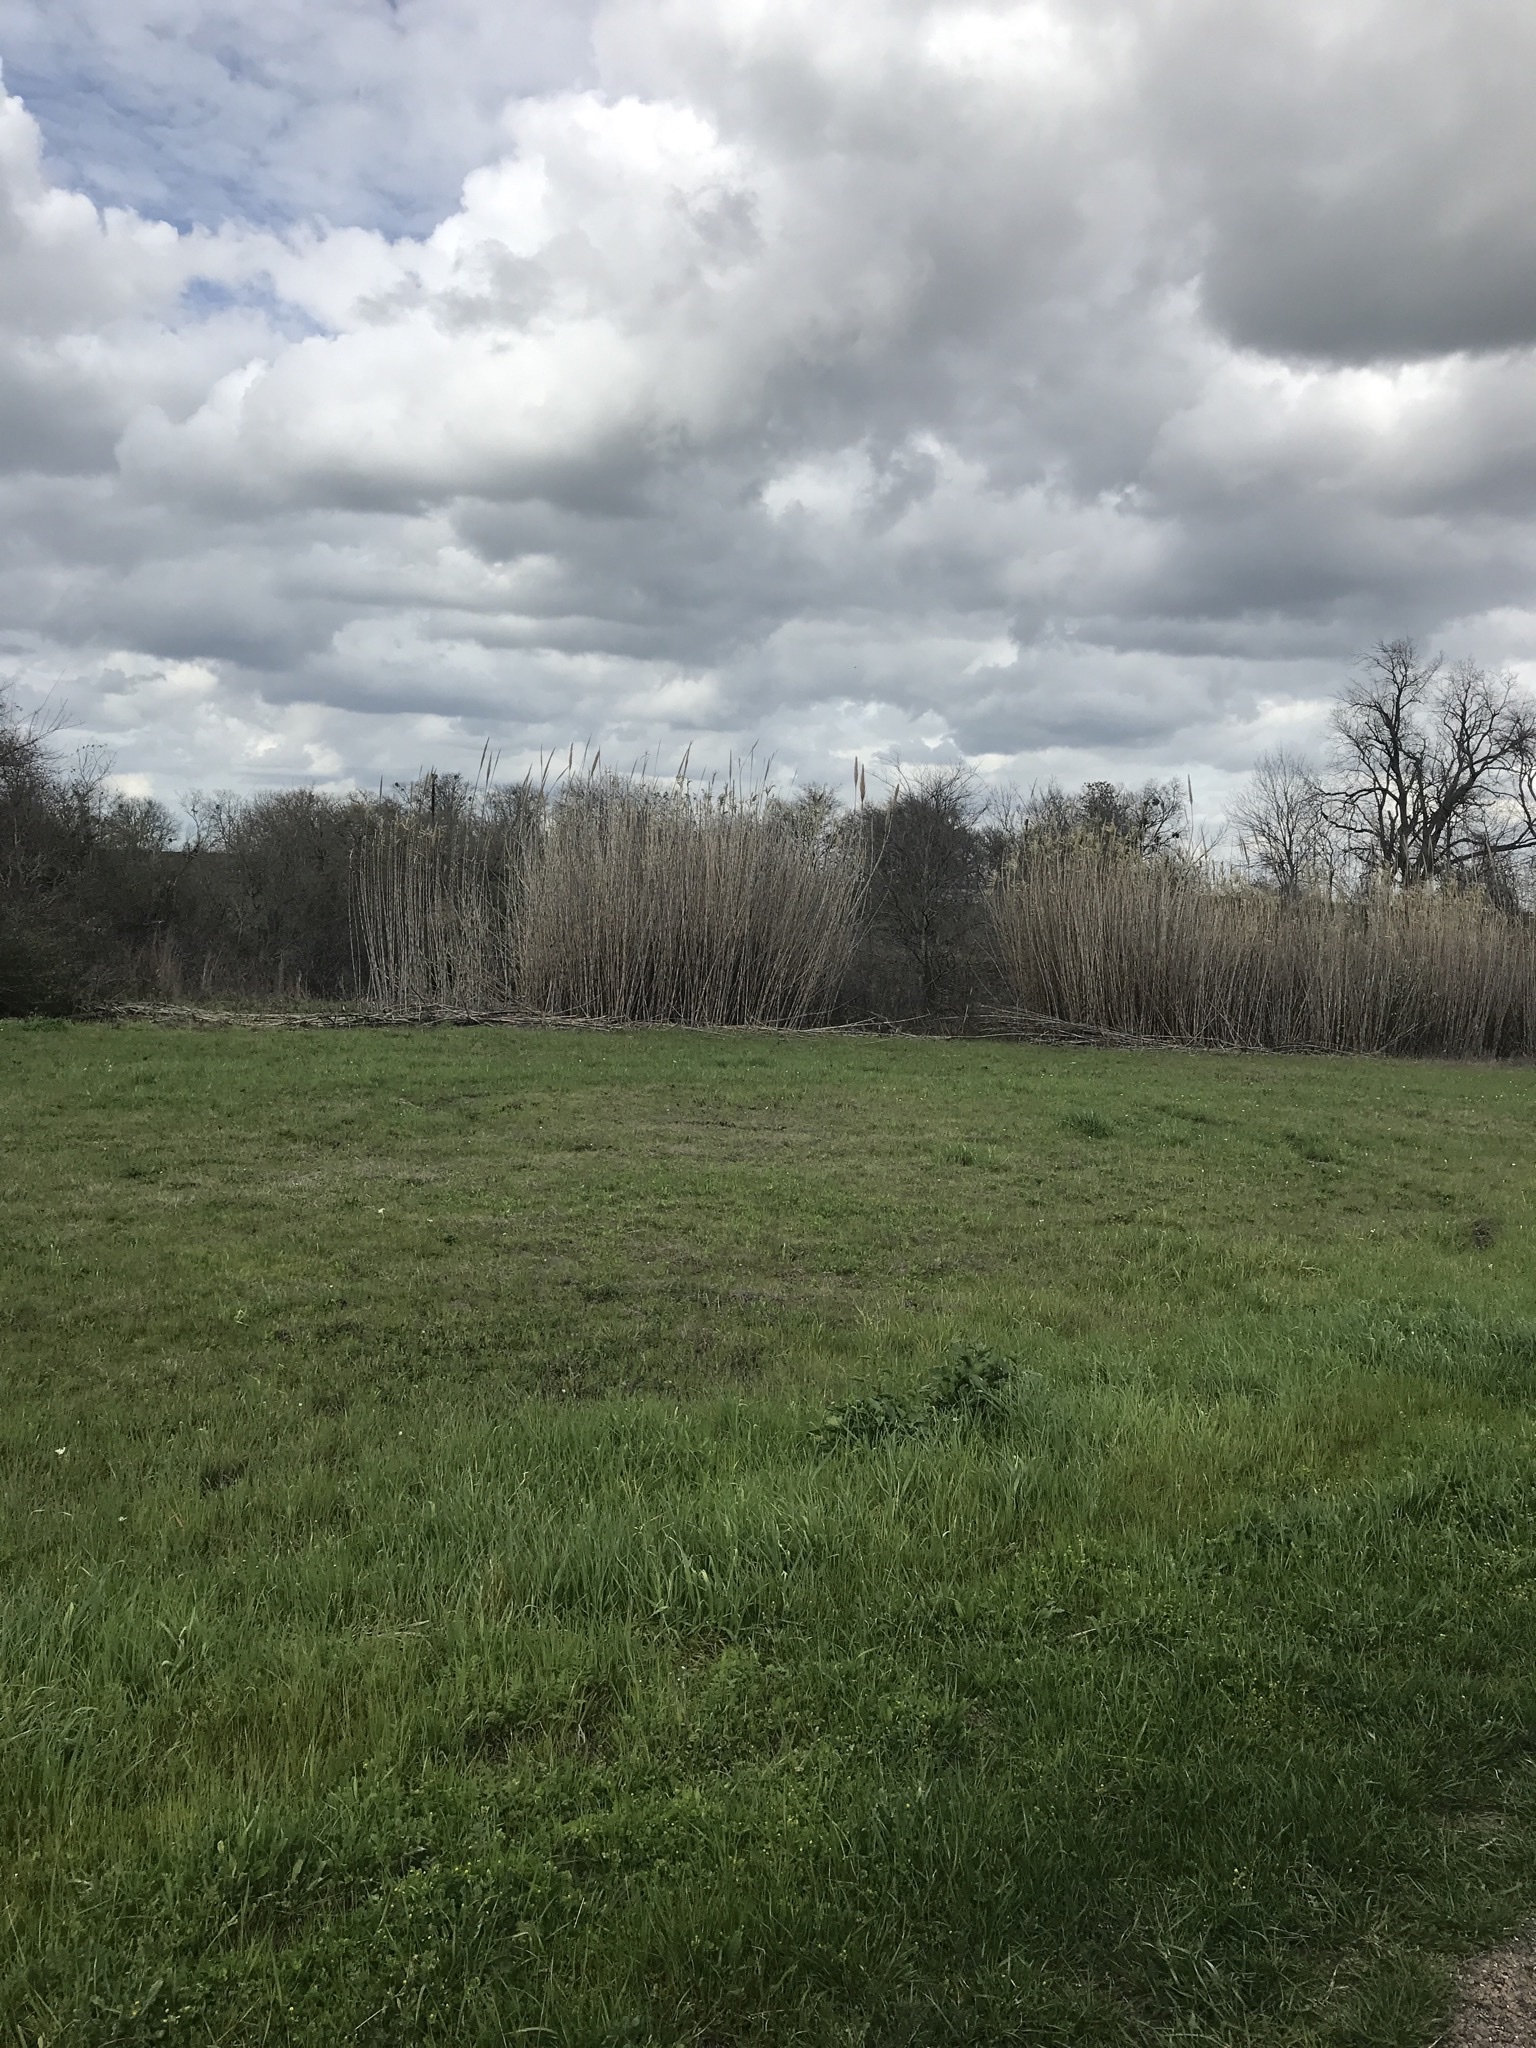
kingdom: Plantae
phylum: Tracheophyta
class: Liliopsida
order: Poales
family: Poaceae
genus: Arundo
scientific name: Arundo donax
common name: Giant reed
